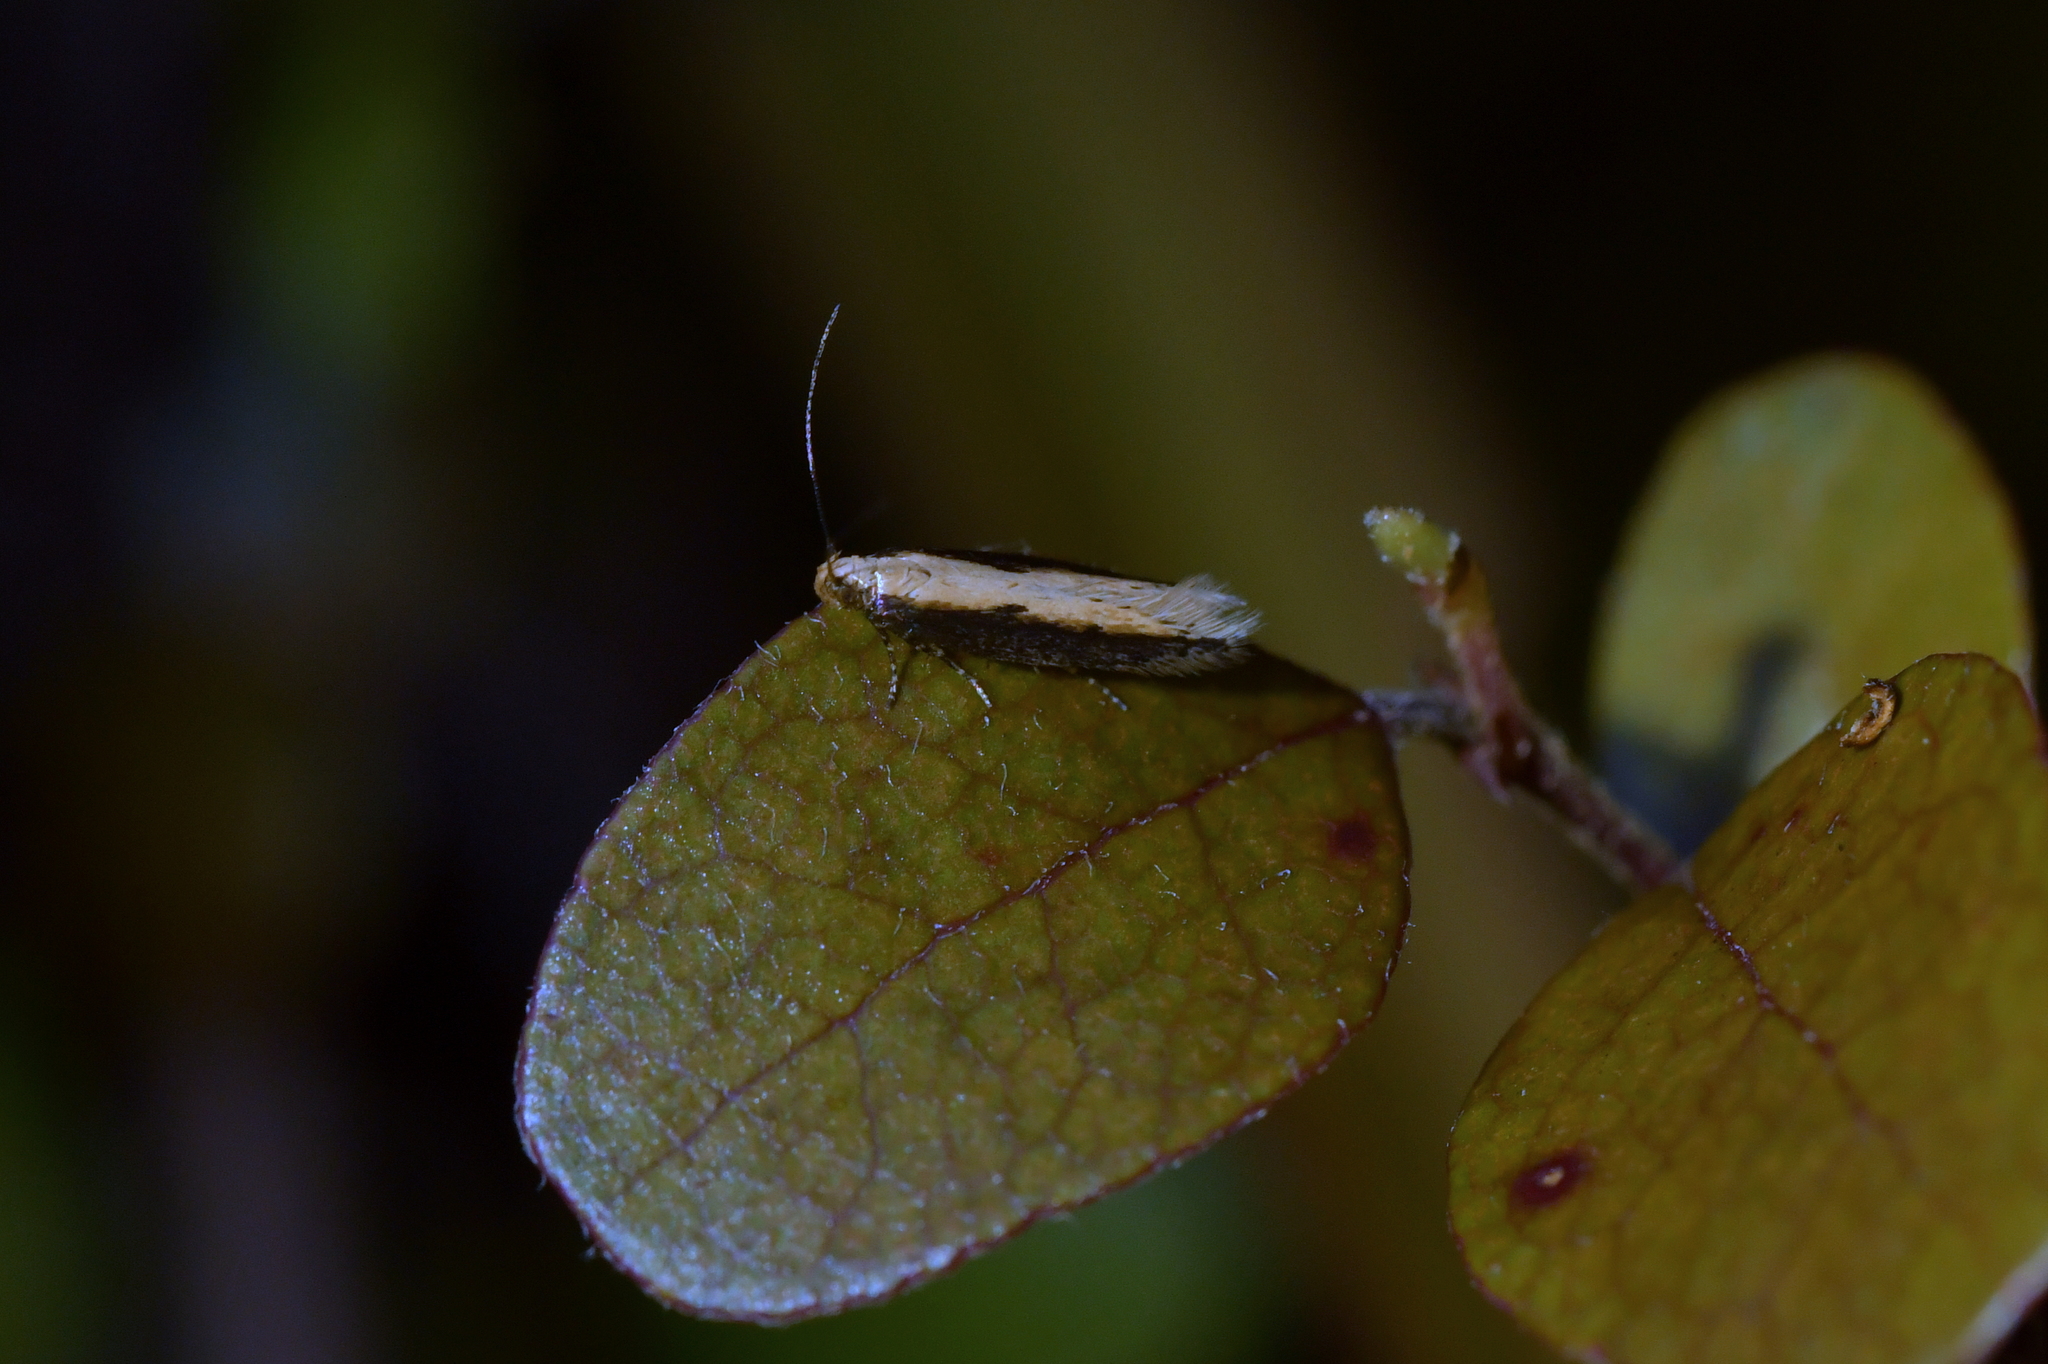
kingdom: Animalia
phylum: Arthropoda
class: Insecta
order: Lepidoptera
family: Gelechiidae
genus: Kiwaia
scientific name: Kiwaia parvula
